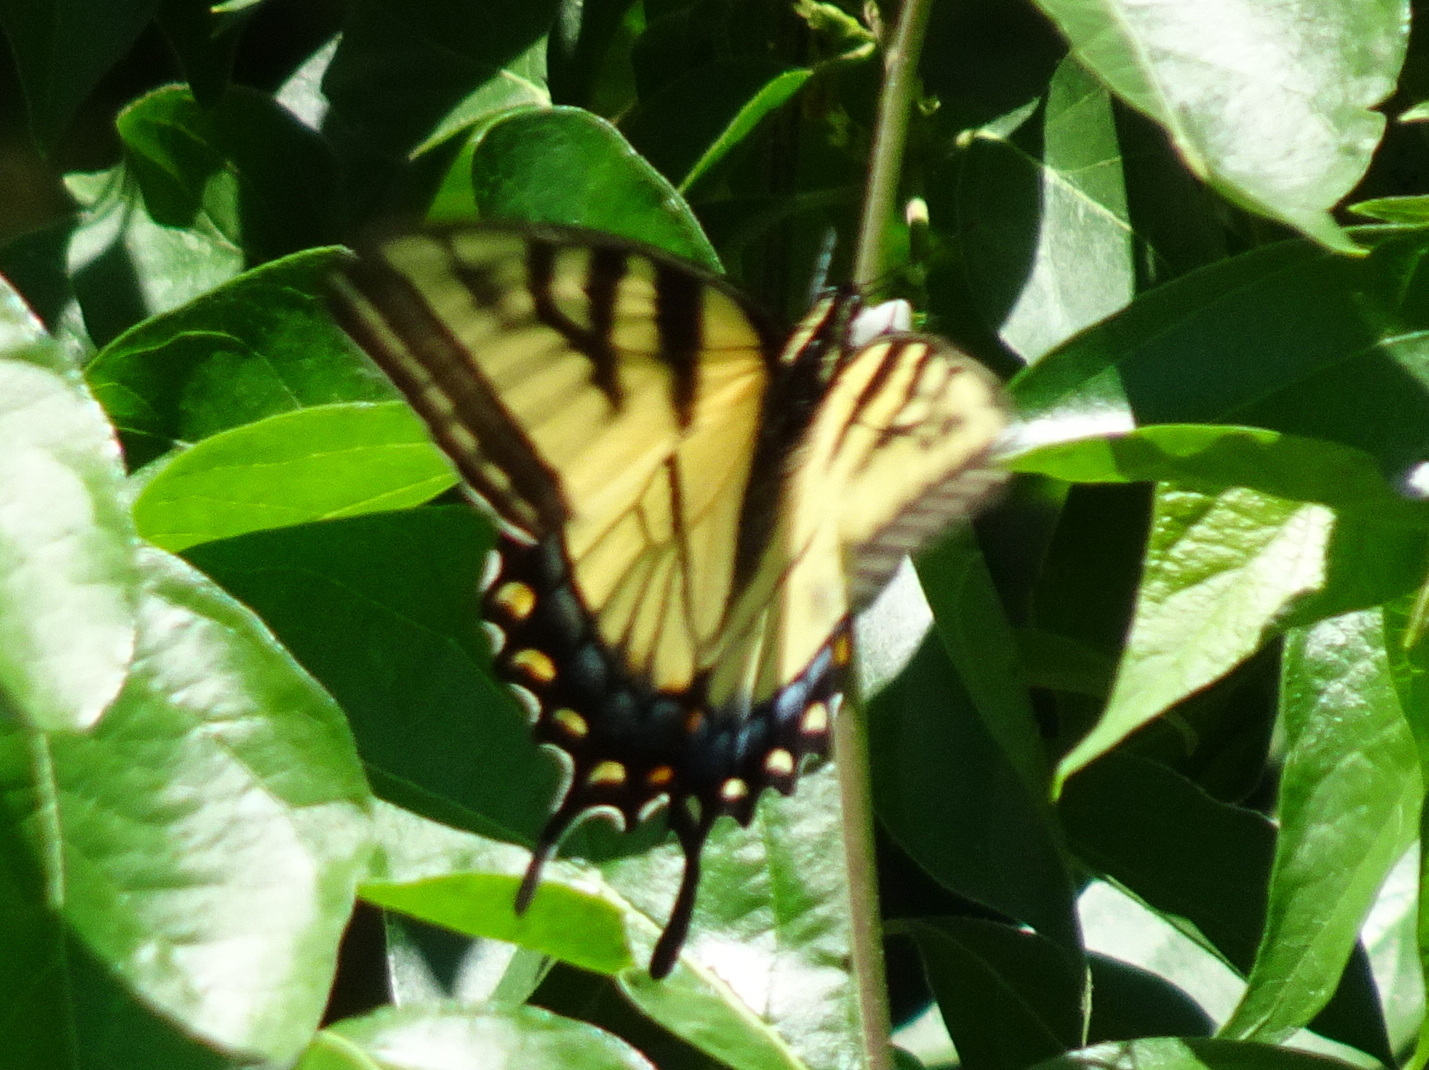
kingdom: Animalia
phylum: Arthropoda
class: Insecta
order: Lepidoptera
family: Papilionidae
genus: Papilio
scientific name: Papilio glaucus
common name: Tiger swallowtail
